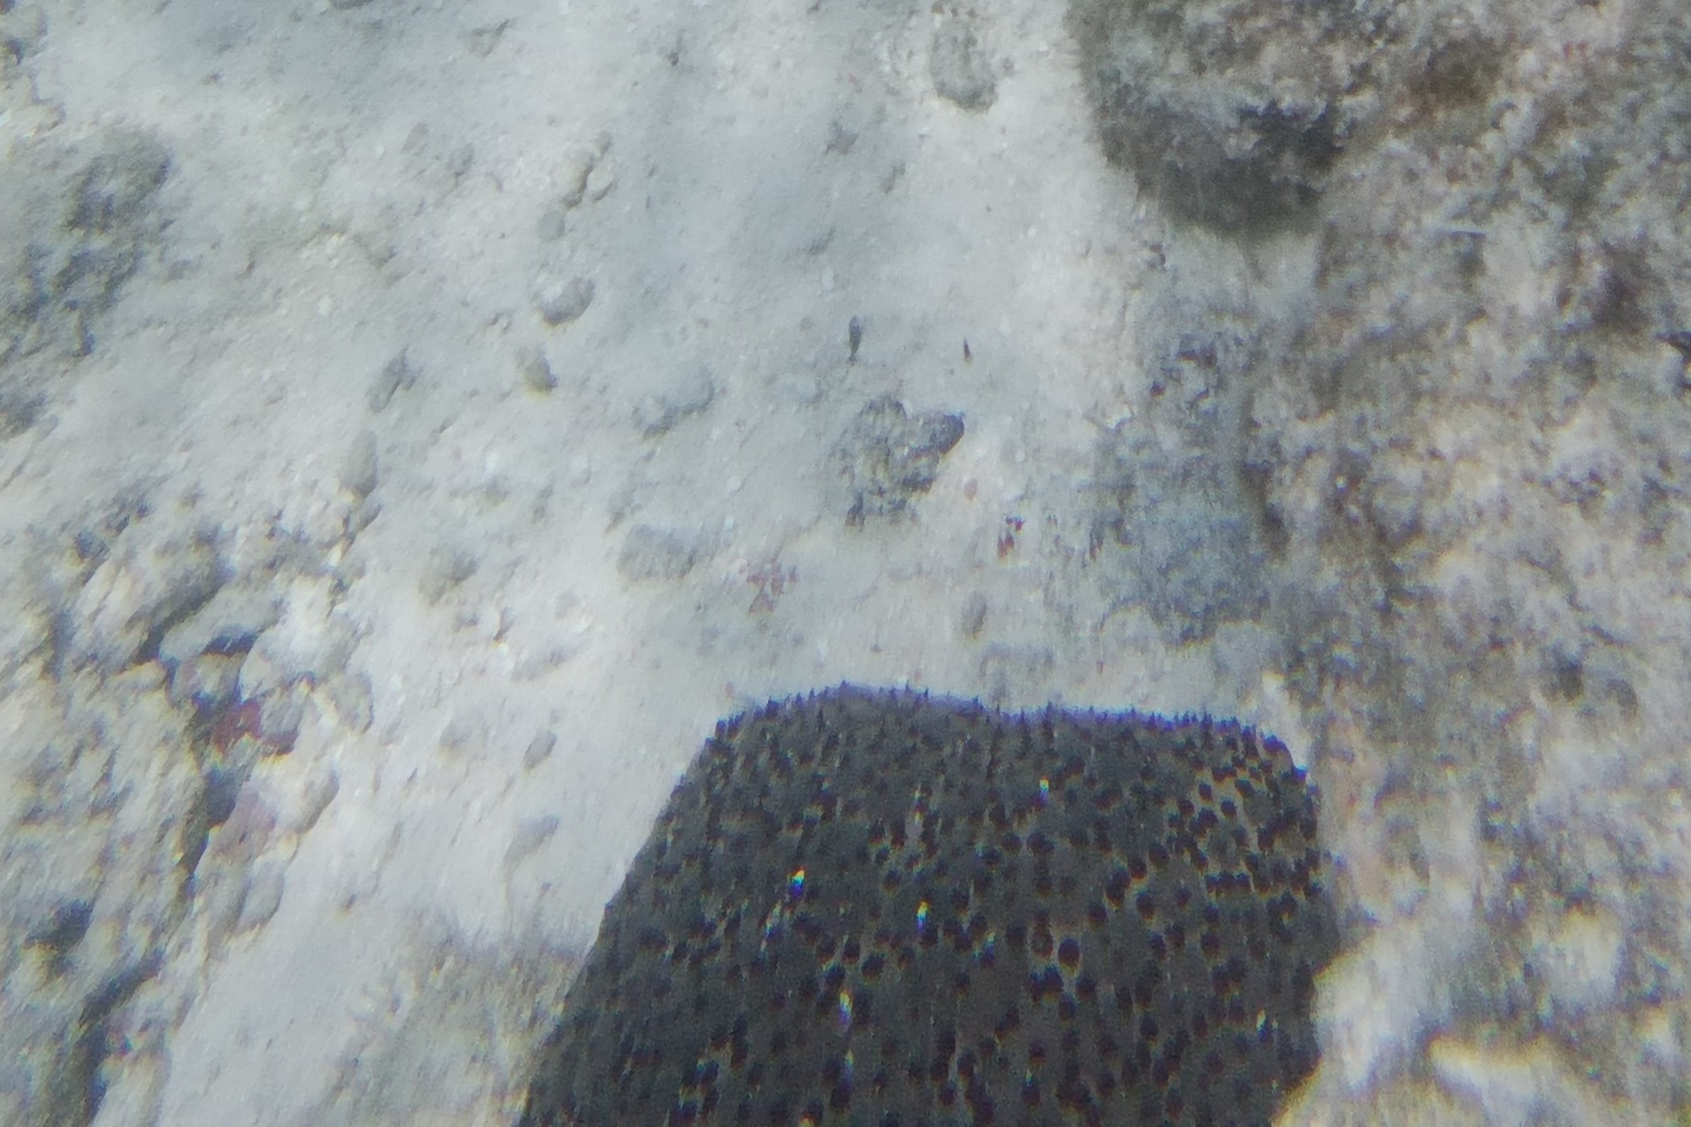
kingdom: Animalia
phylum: Echinodermata
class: Asteroidea
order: Valvatida
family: Oreasteridae
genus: Culcita
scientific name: Culcita schmideliana
